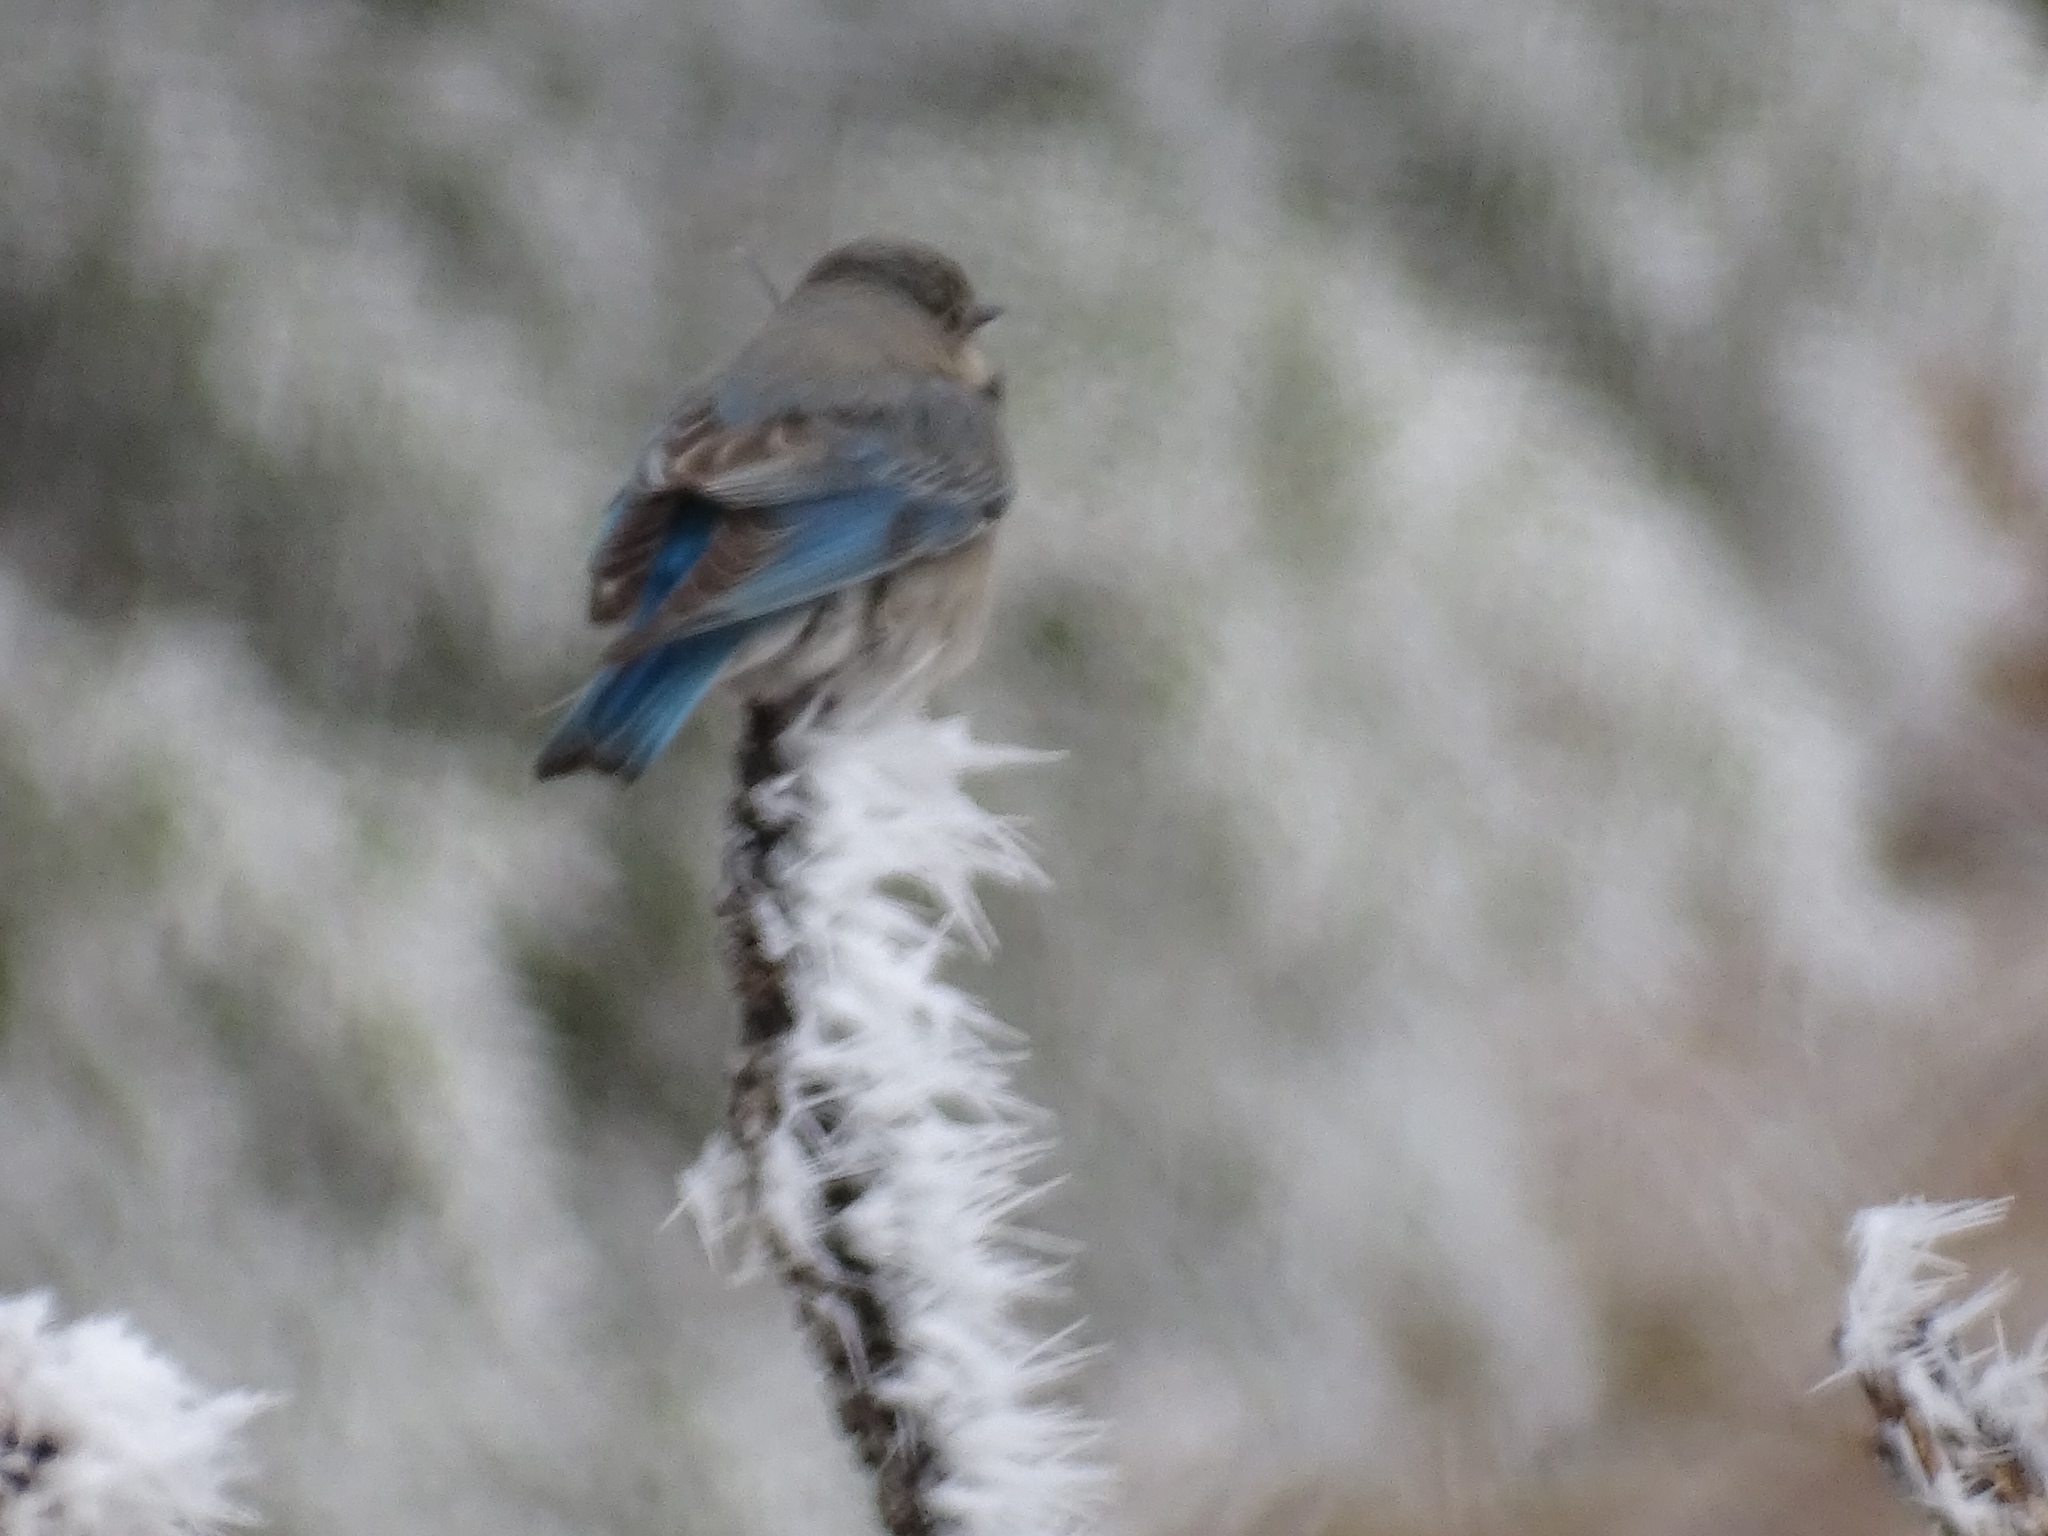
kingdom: Animalia
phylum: Chordata
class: Aves
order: Passeriformes
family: Turdidae
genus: Sialia
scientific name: Sialia mexicana
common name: Western bluebird
